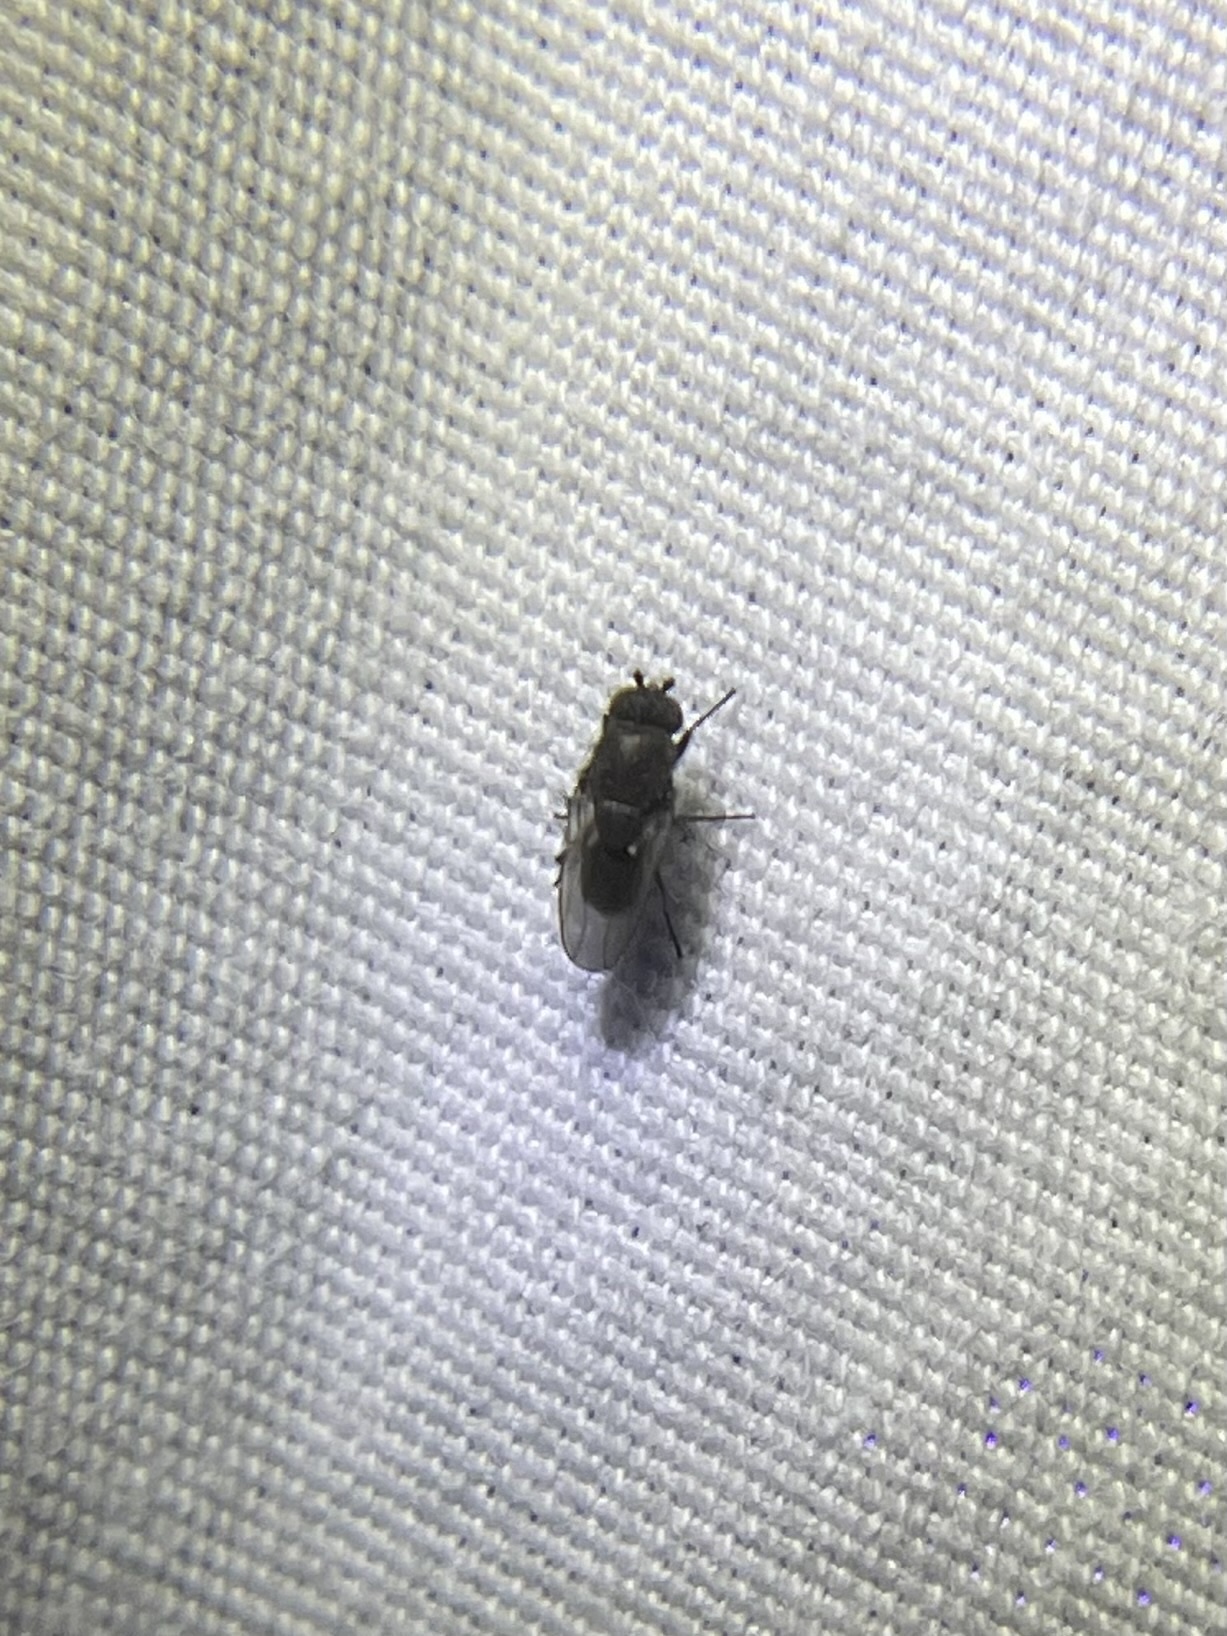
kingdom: Animalia
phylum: Arthropoda
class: Insecta
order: Diptera
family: Sphaeroceridae
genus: Rachispoda
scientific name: Rachispoda
